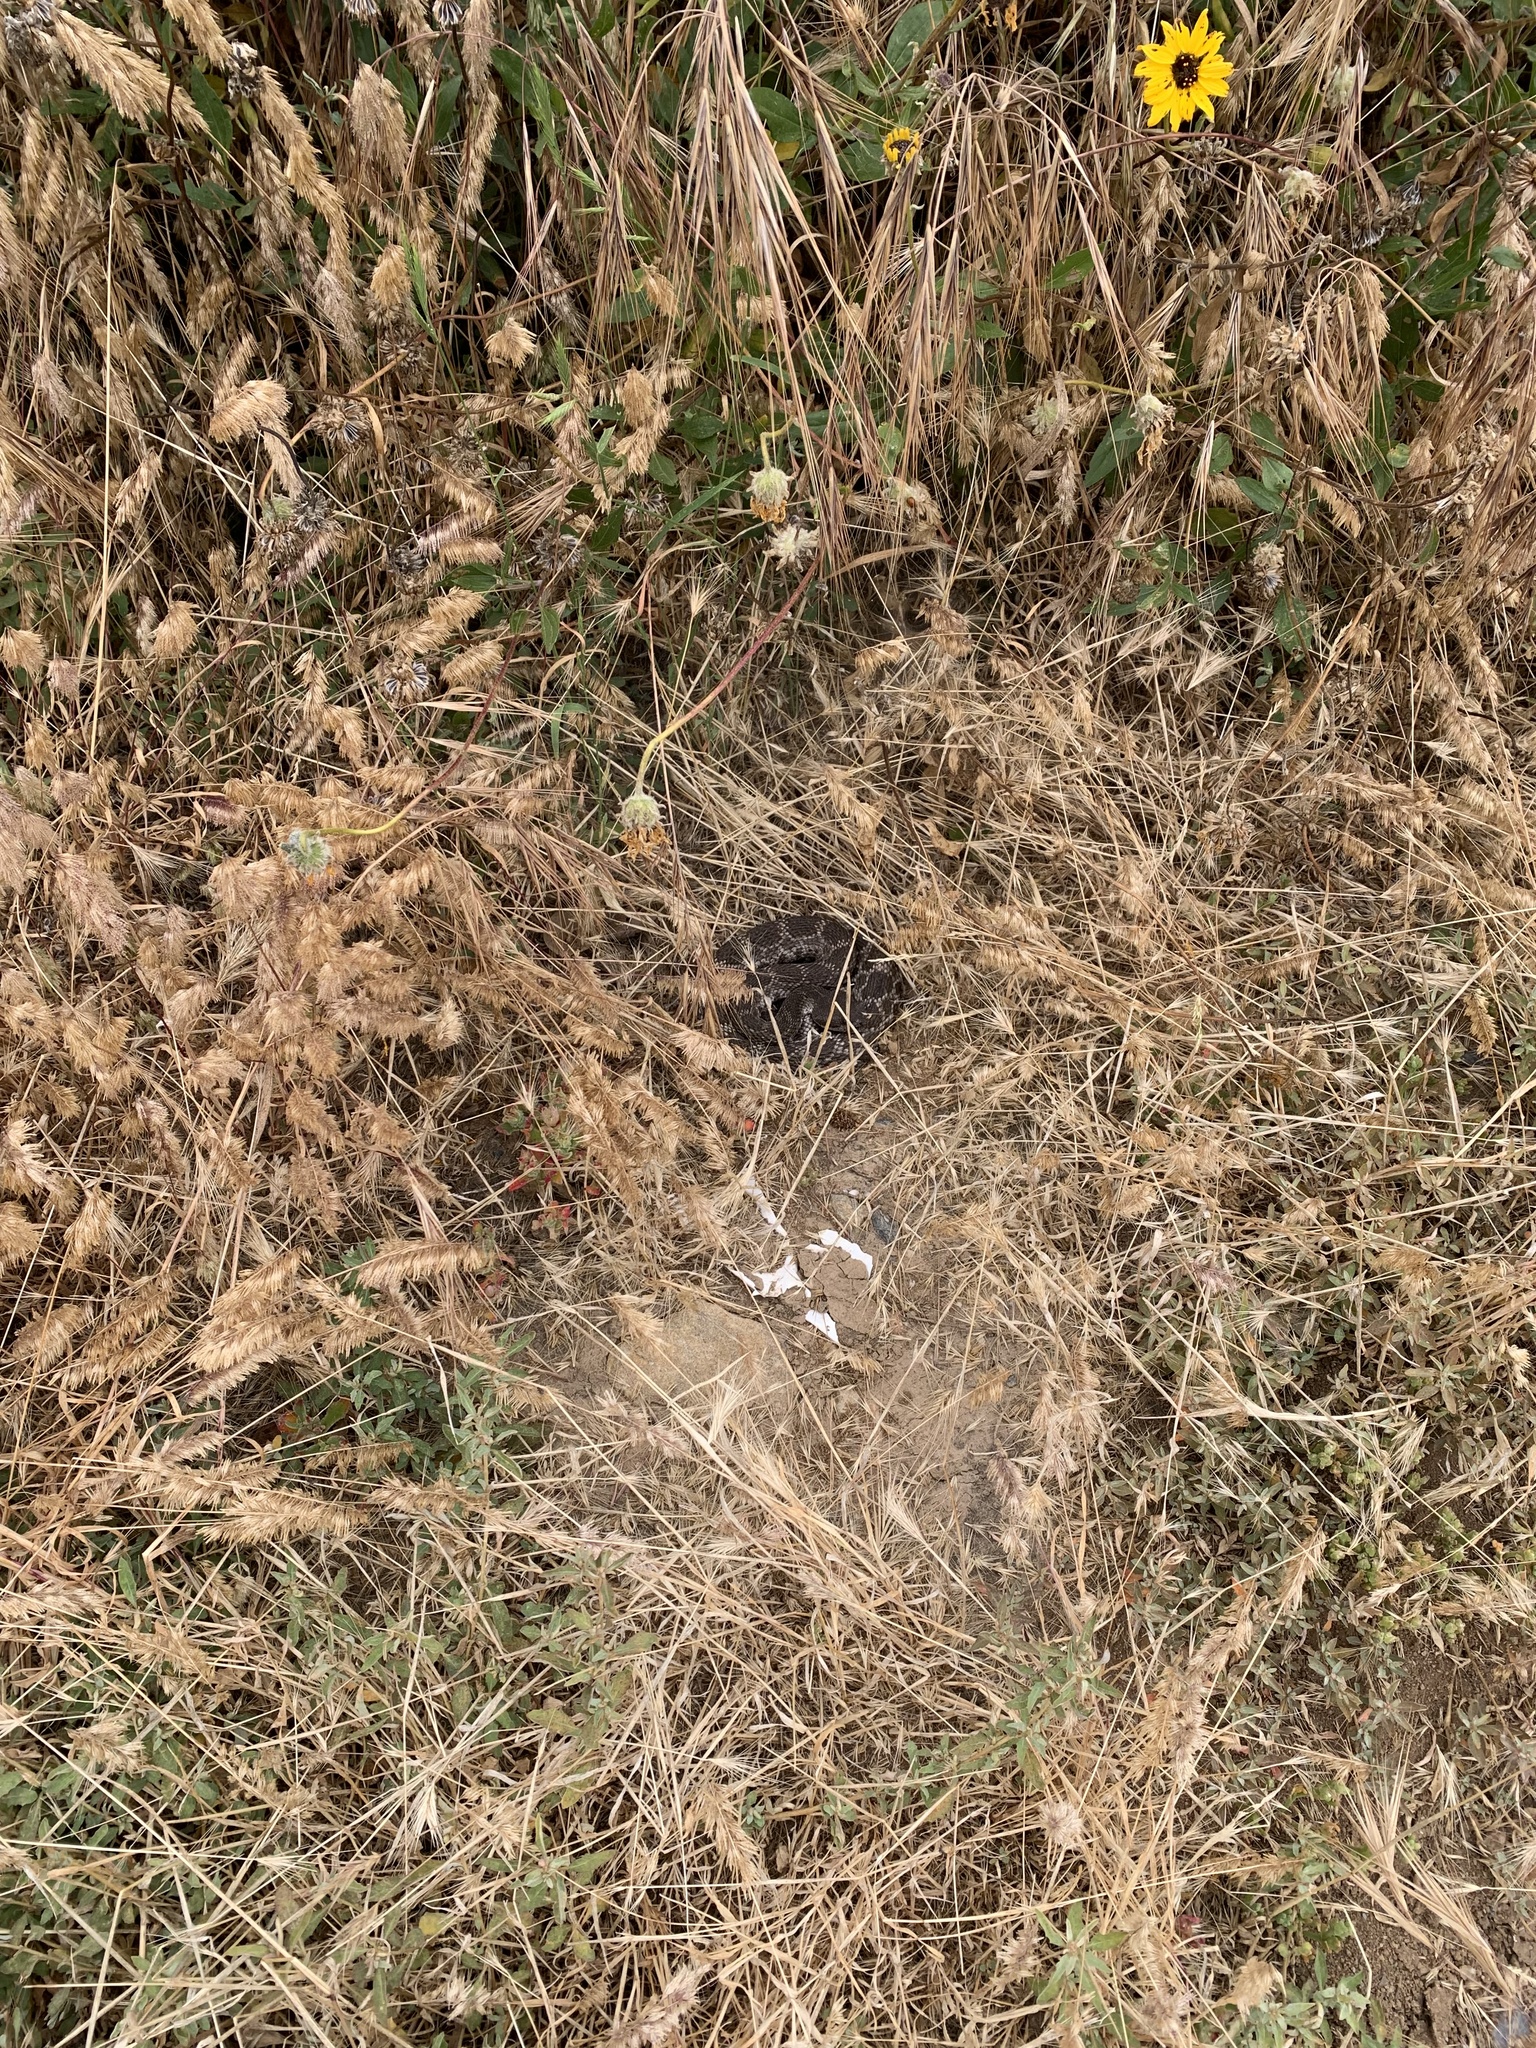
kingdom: Animalia
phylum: Chordata
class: Squamata
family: Viperidae
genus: Crotalus
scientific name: Crotalus oreganus
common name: Abyssus
